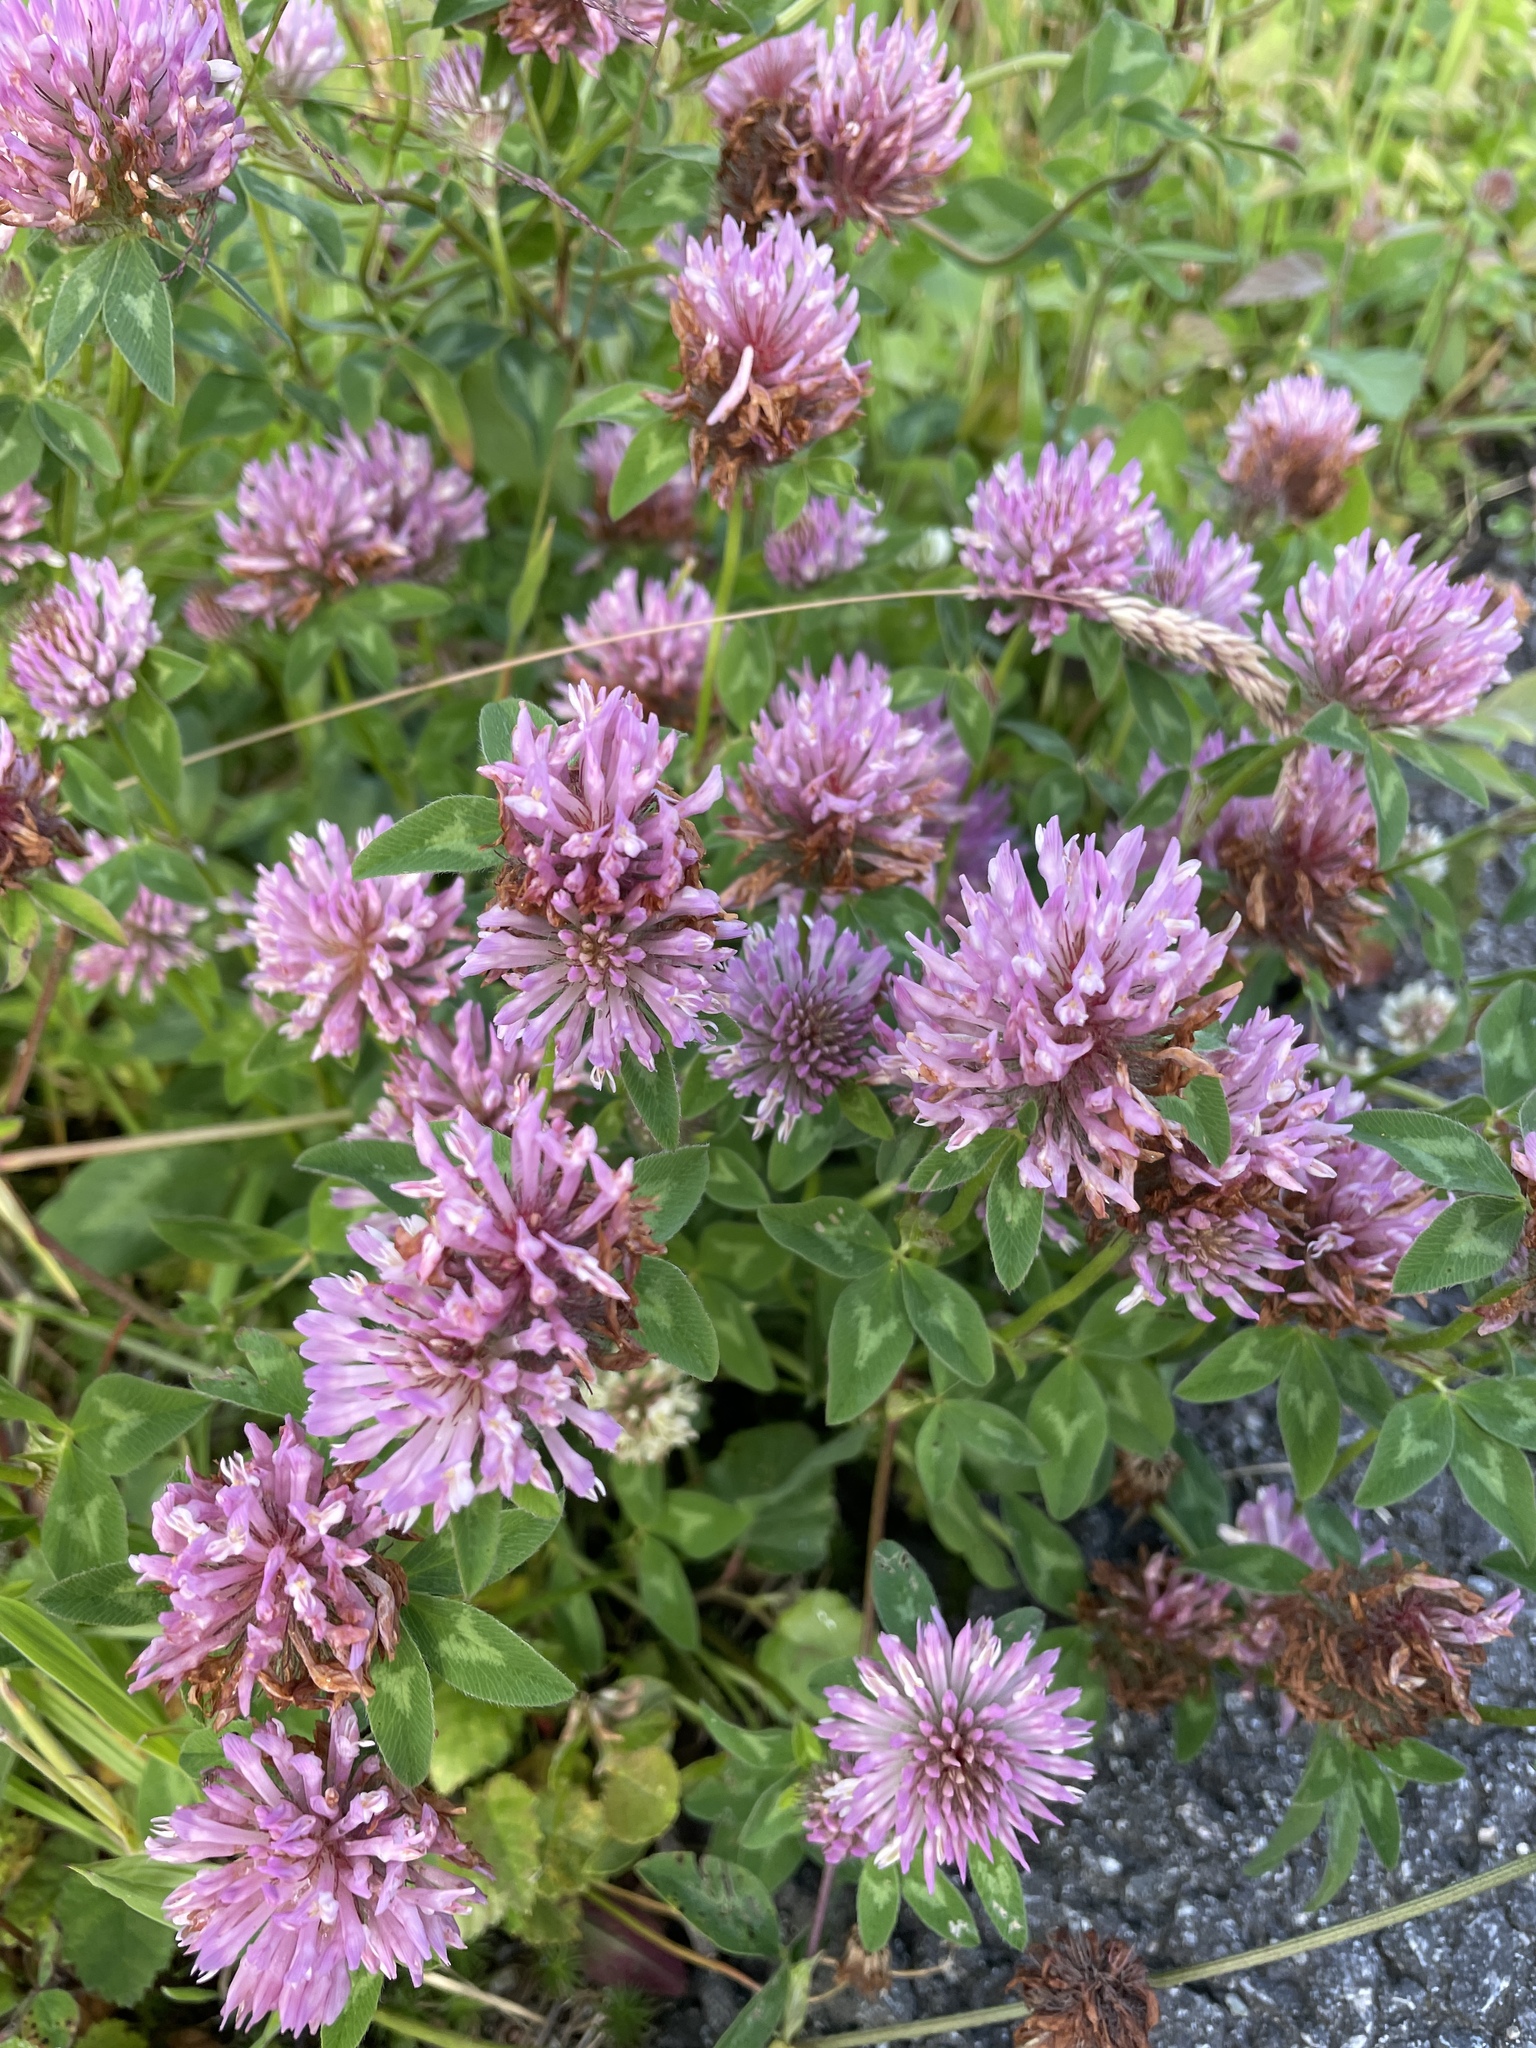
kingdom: Plantae
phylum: Tracheophyta
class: Magnoliopsida
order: Fabales
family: Fabaceae
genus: Trifolium
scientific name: Trifolium pratense
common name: Red clover
